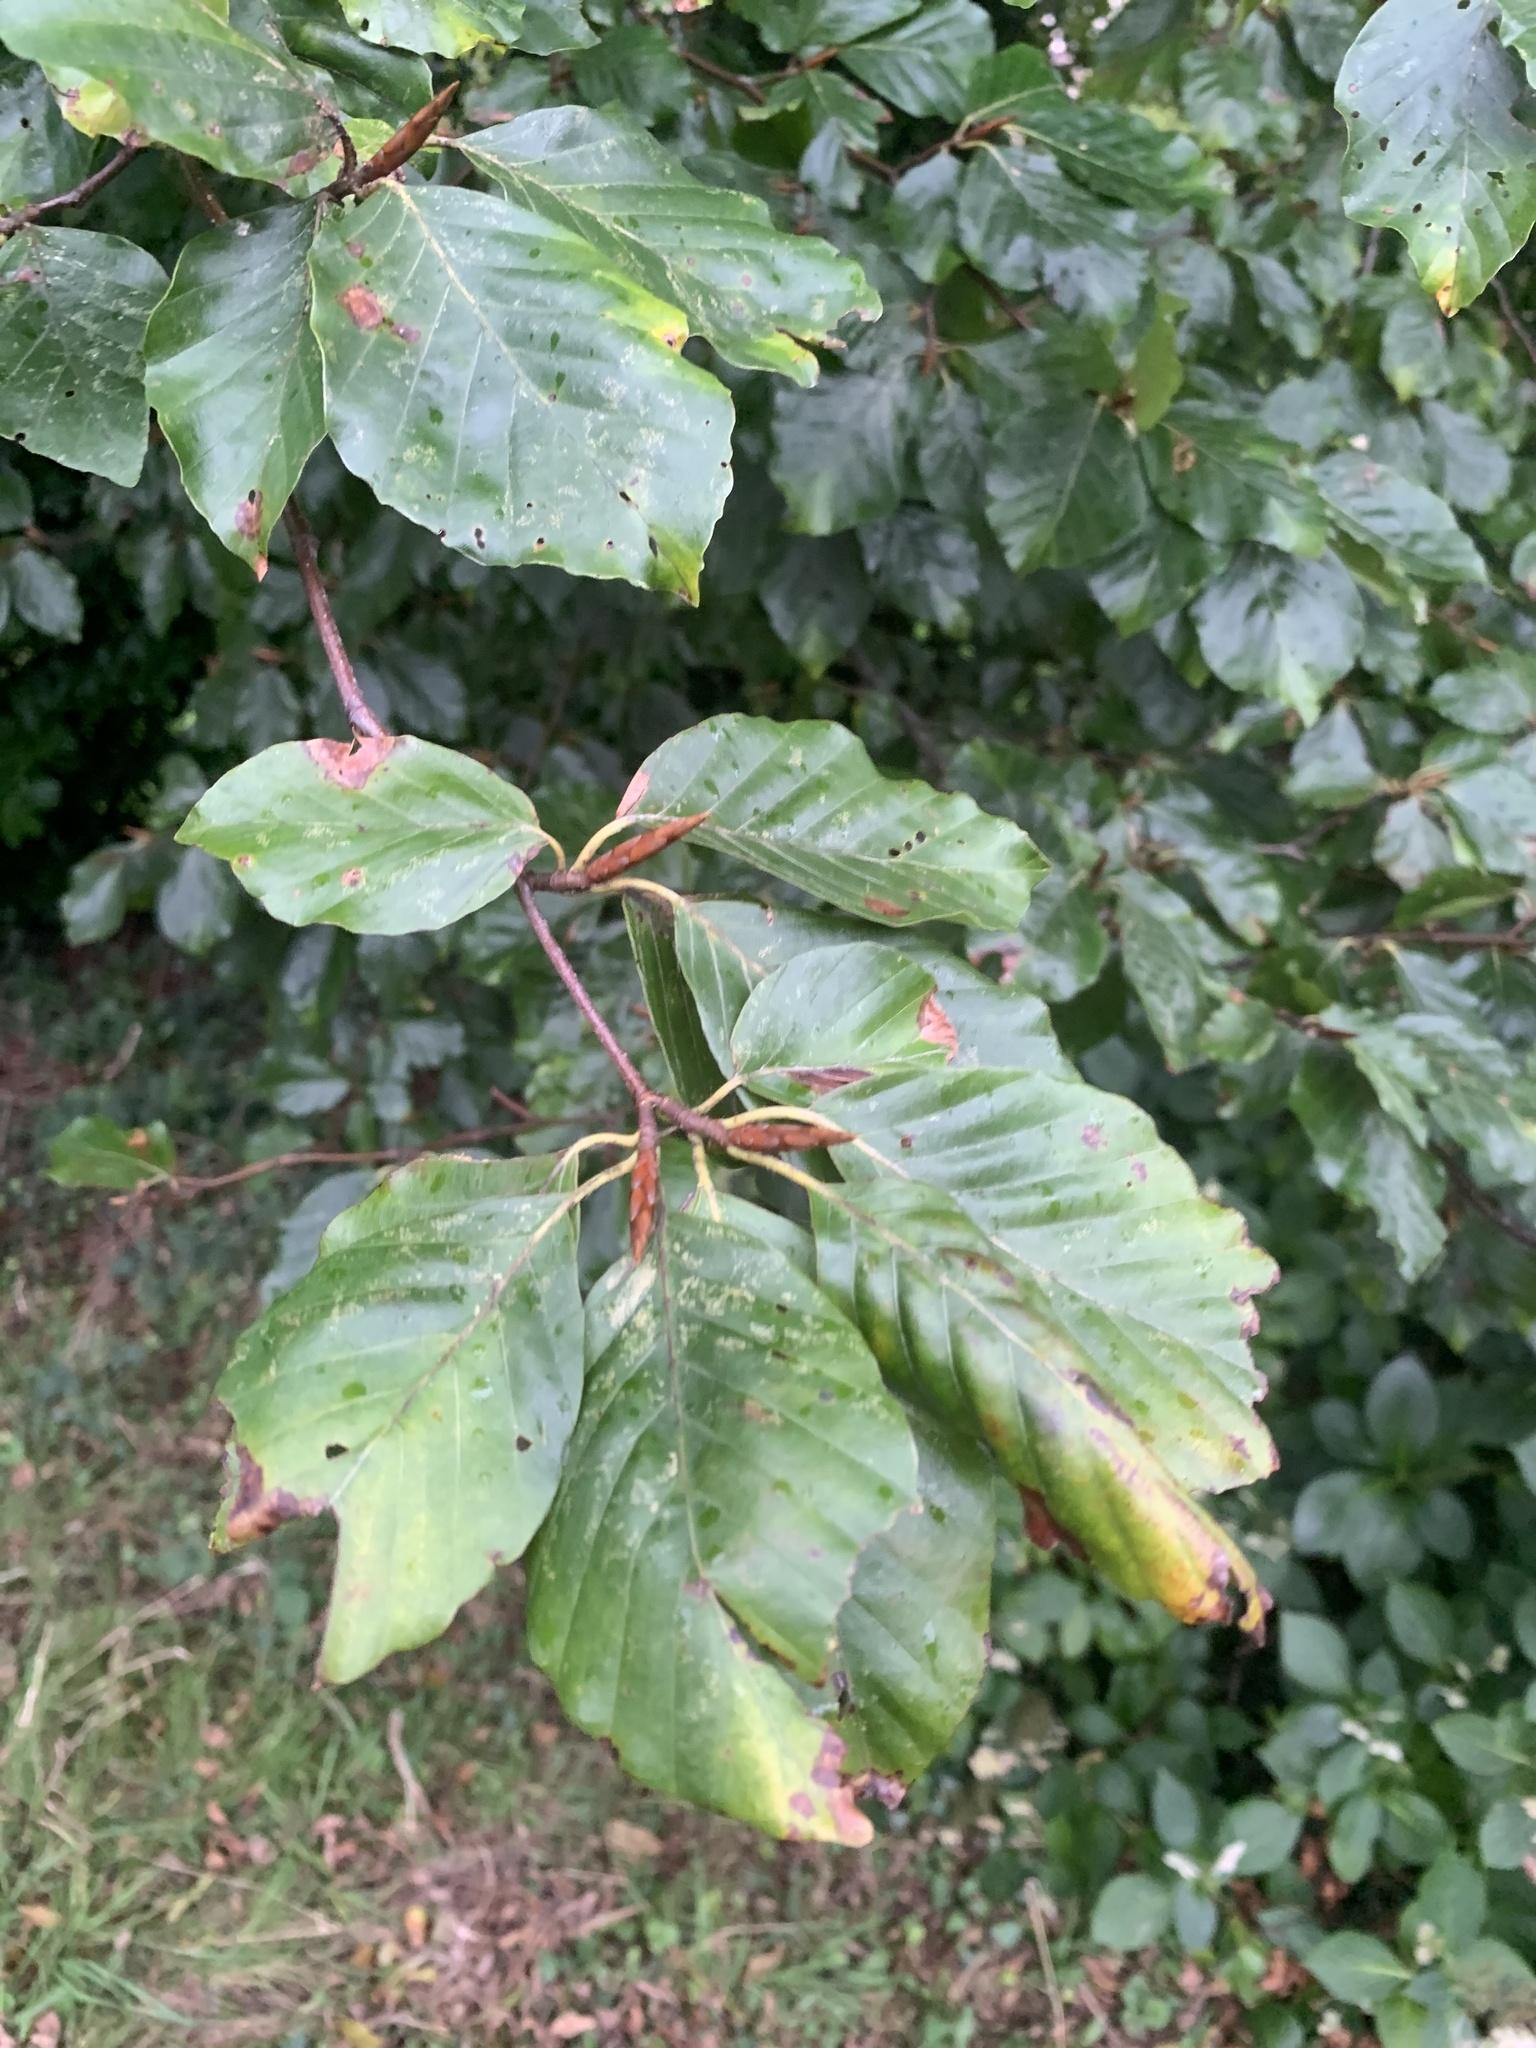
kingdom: Plantae
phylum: Tracheophyta
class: Magnoliopsida
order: Fagales
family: Fagaceae
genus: Fagus
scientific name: Fagus sylvatica
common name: Beech
